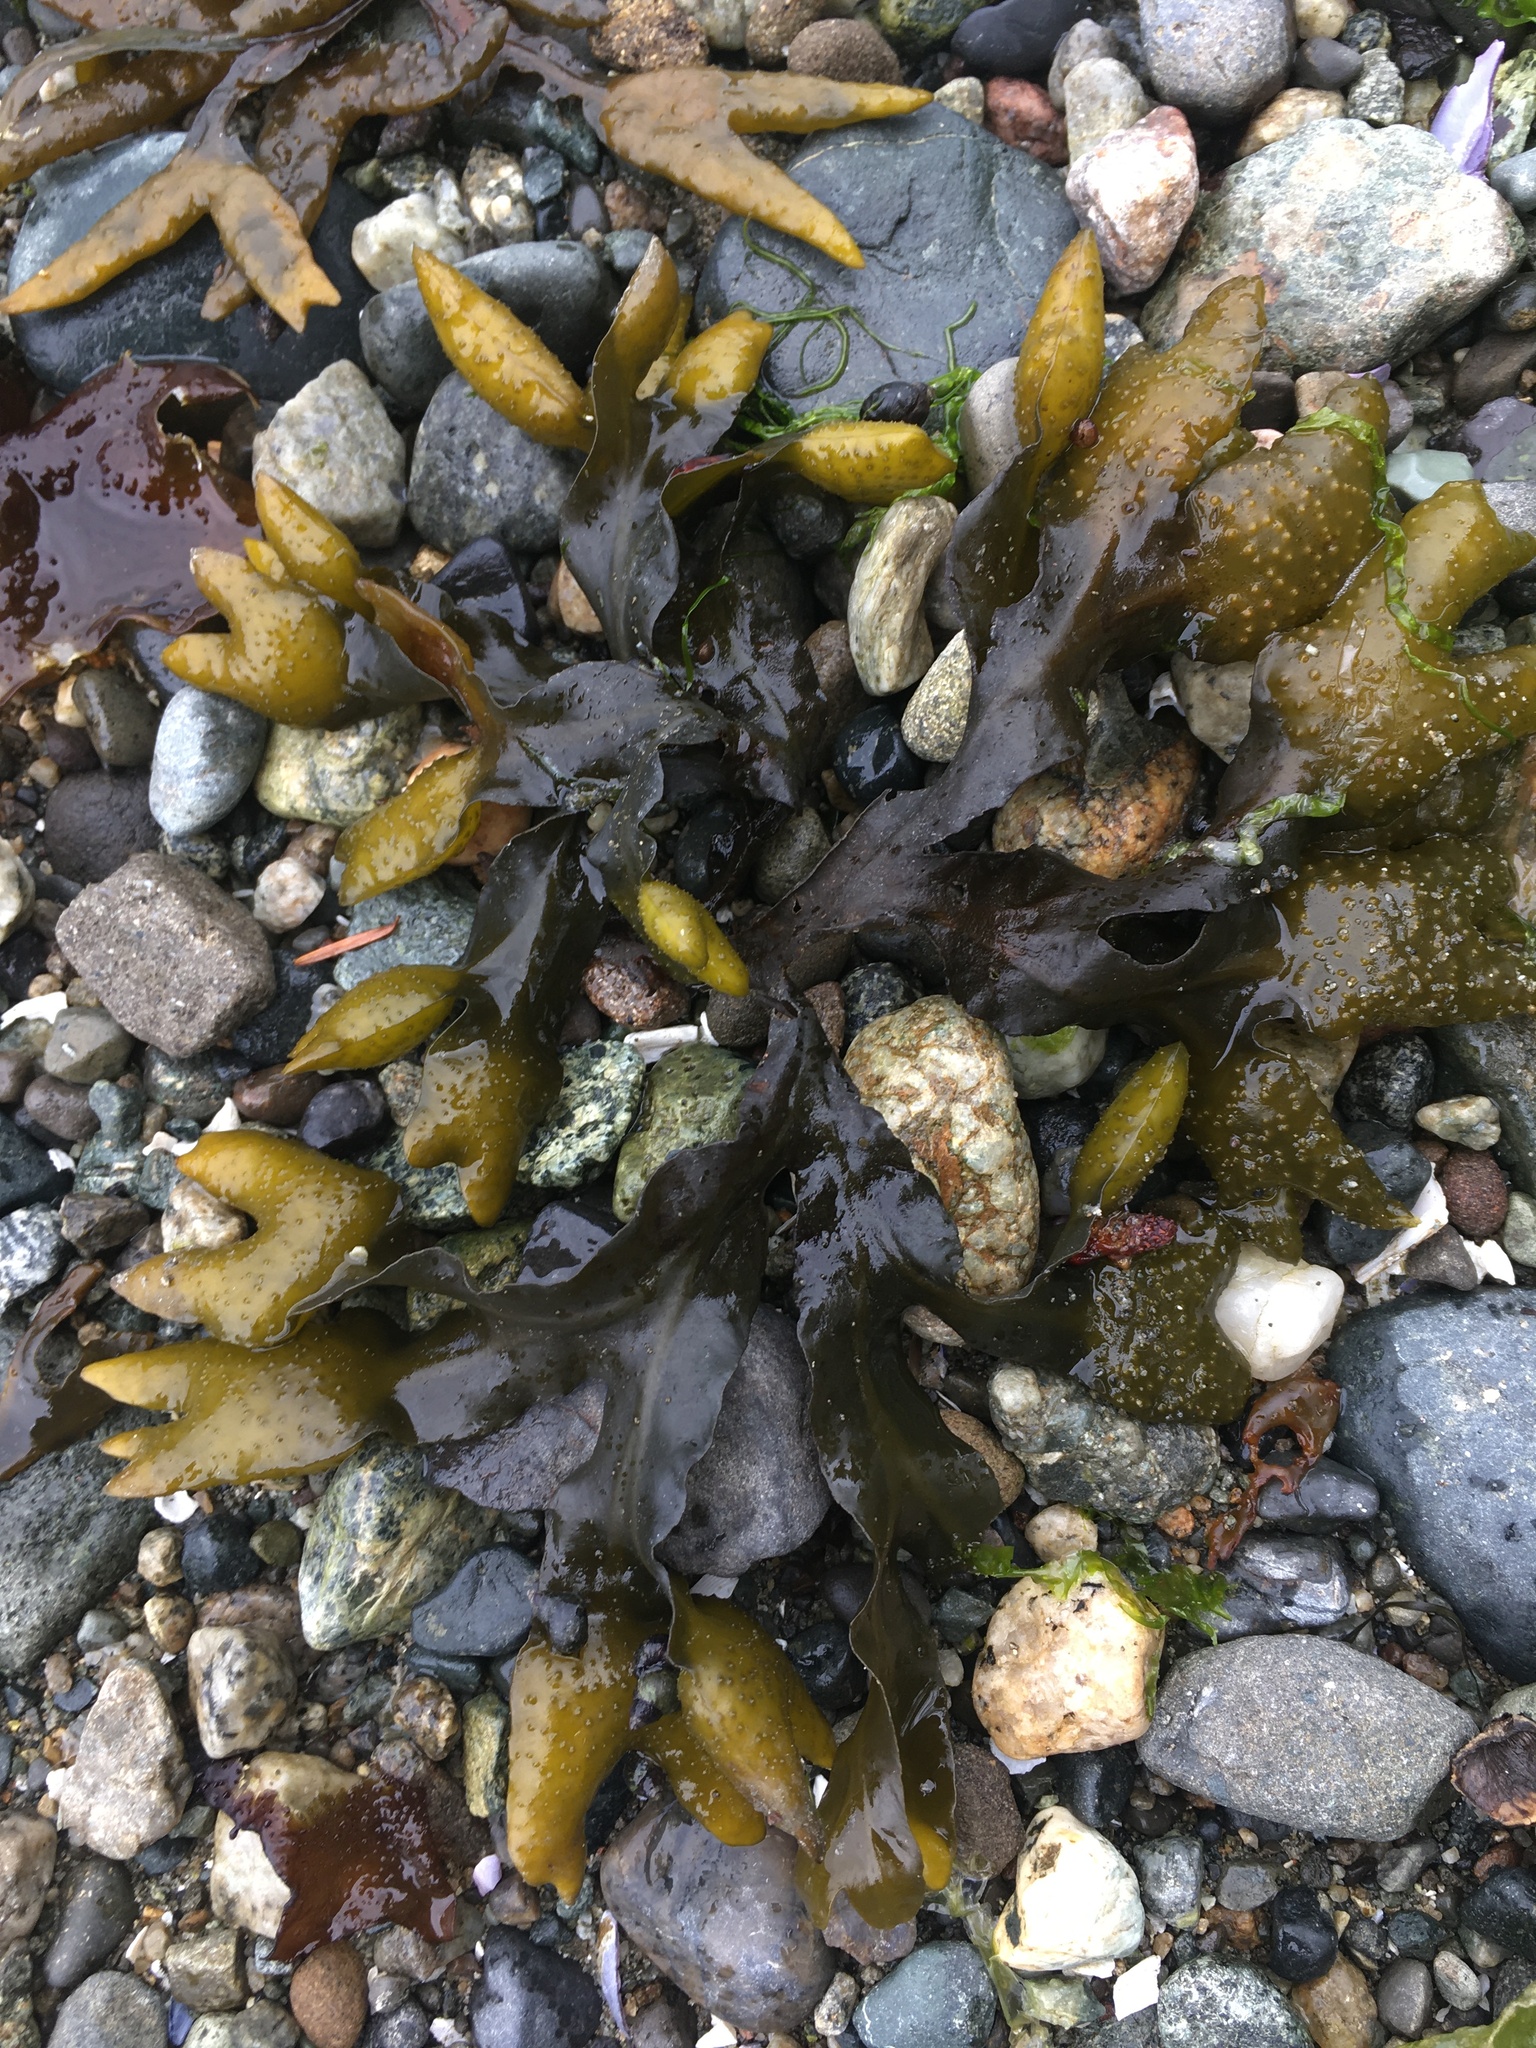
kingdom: Chromista
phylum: Ochrophyta
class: Phaeophyceae
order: Fucales
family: Fucaceae
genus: Fucus
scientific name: Fucus distichus
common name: Rockweed
